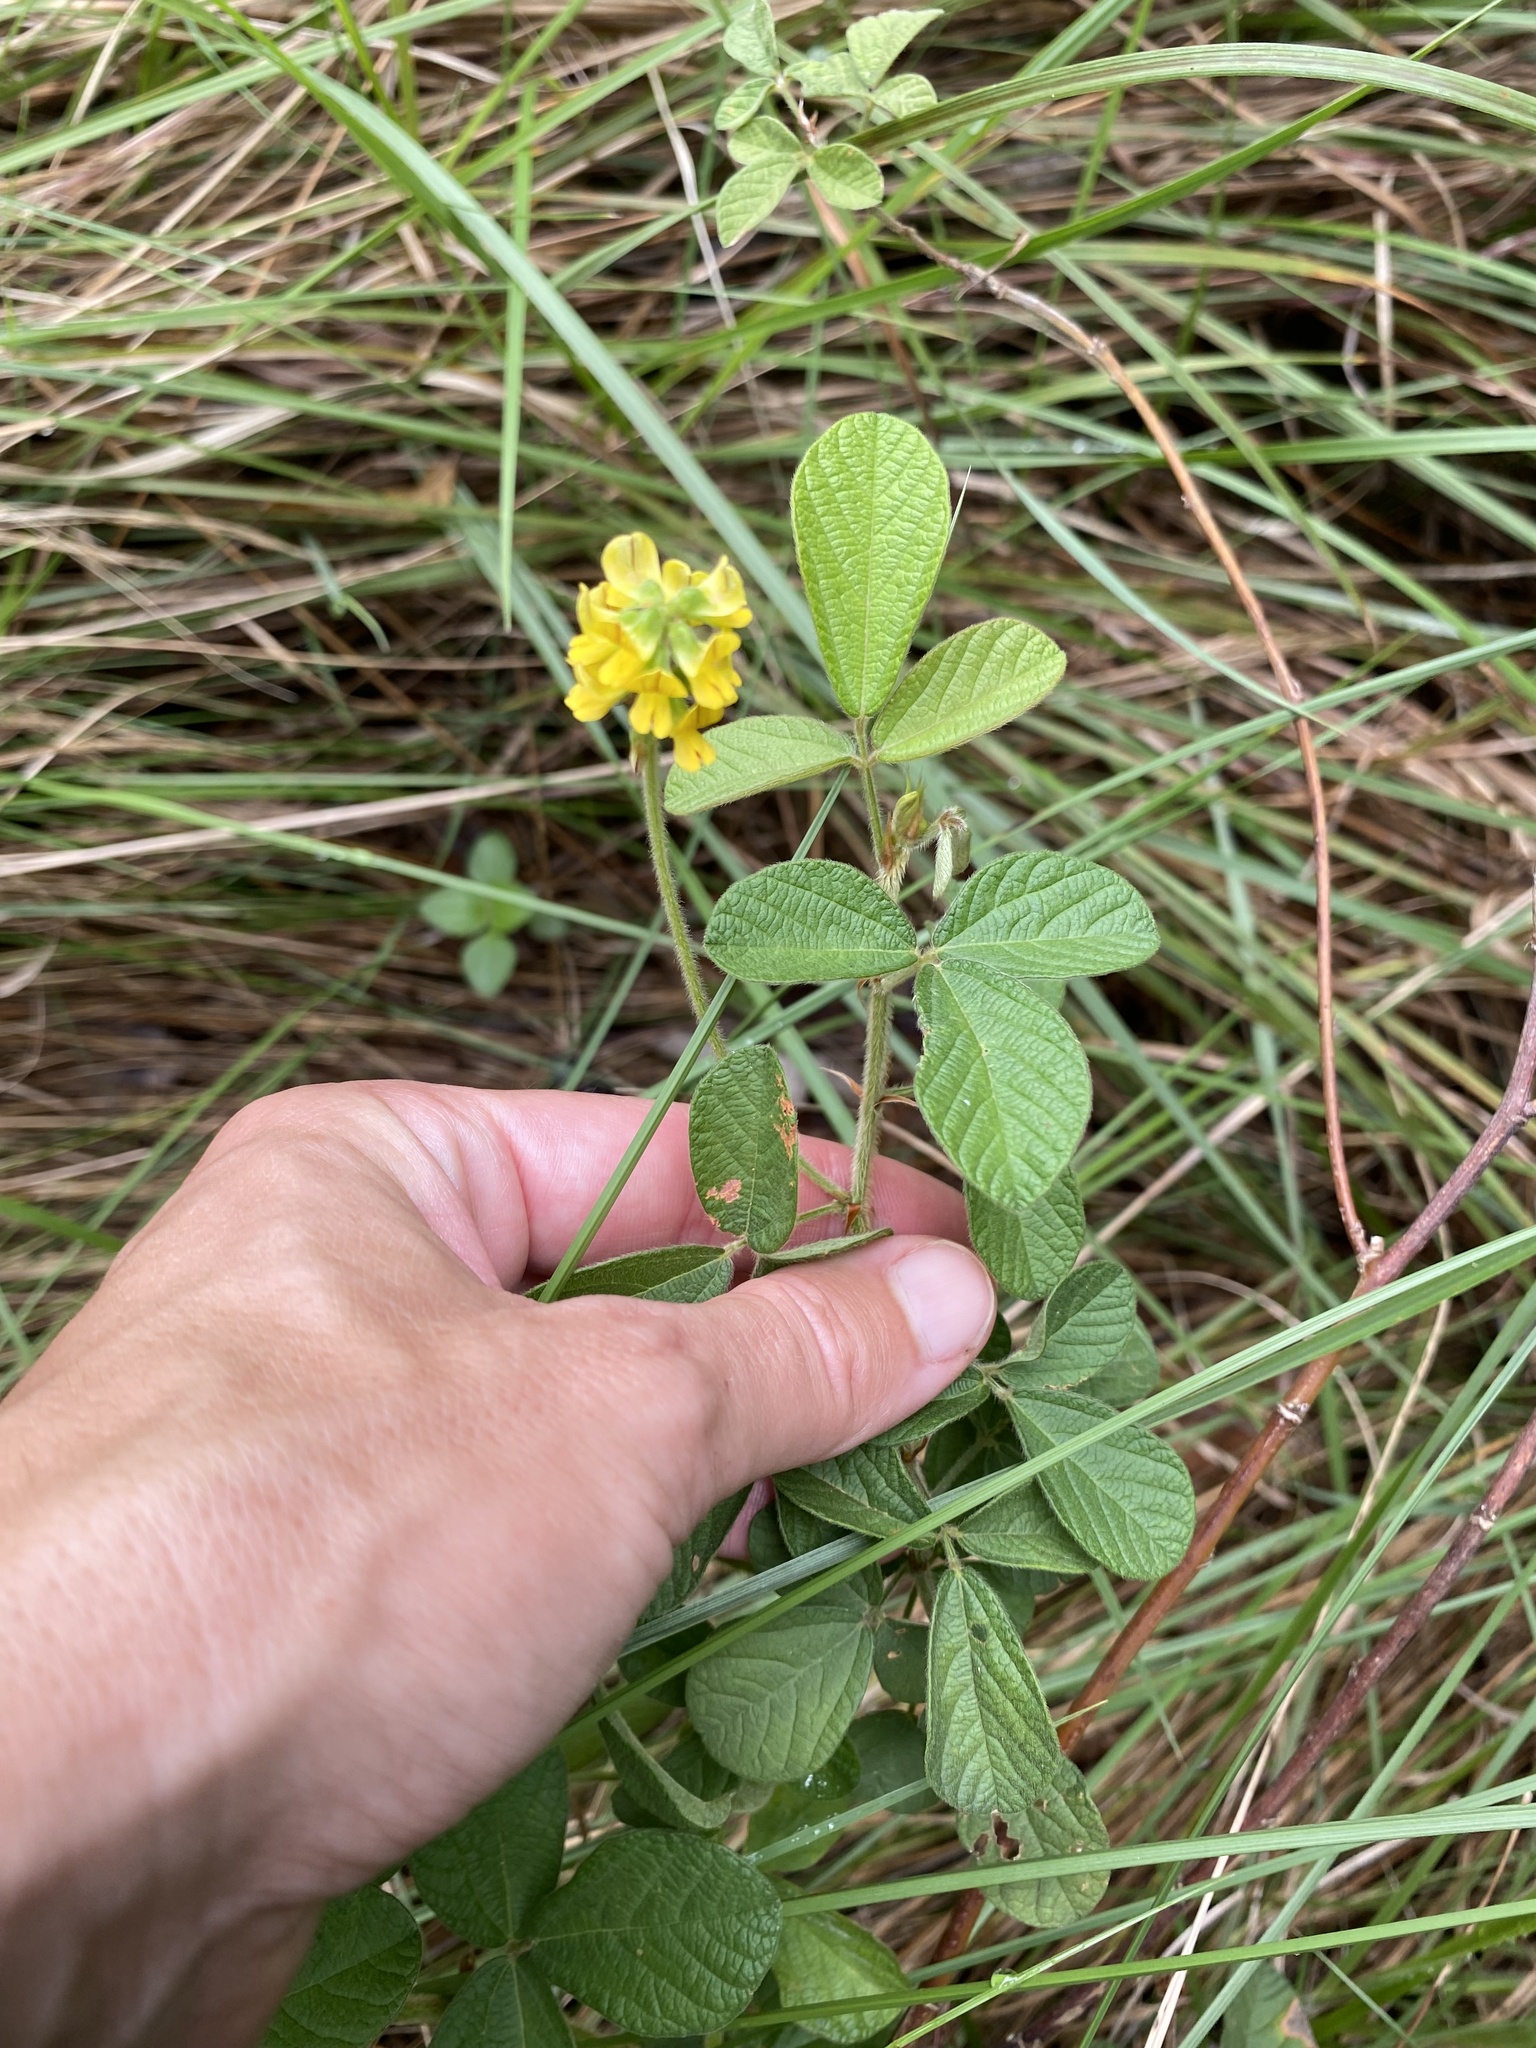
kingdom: Plantae
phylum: Tracheophyta
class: Magnoliopsida
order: Fabales
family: Fabaceae
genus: Eriosema
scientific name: Eriosema parviflorum
